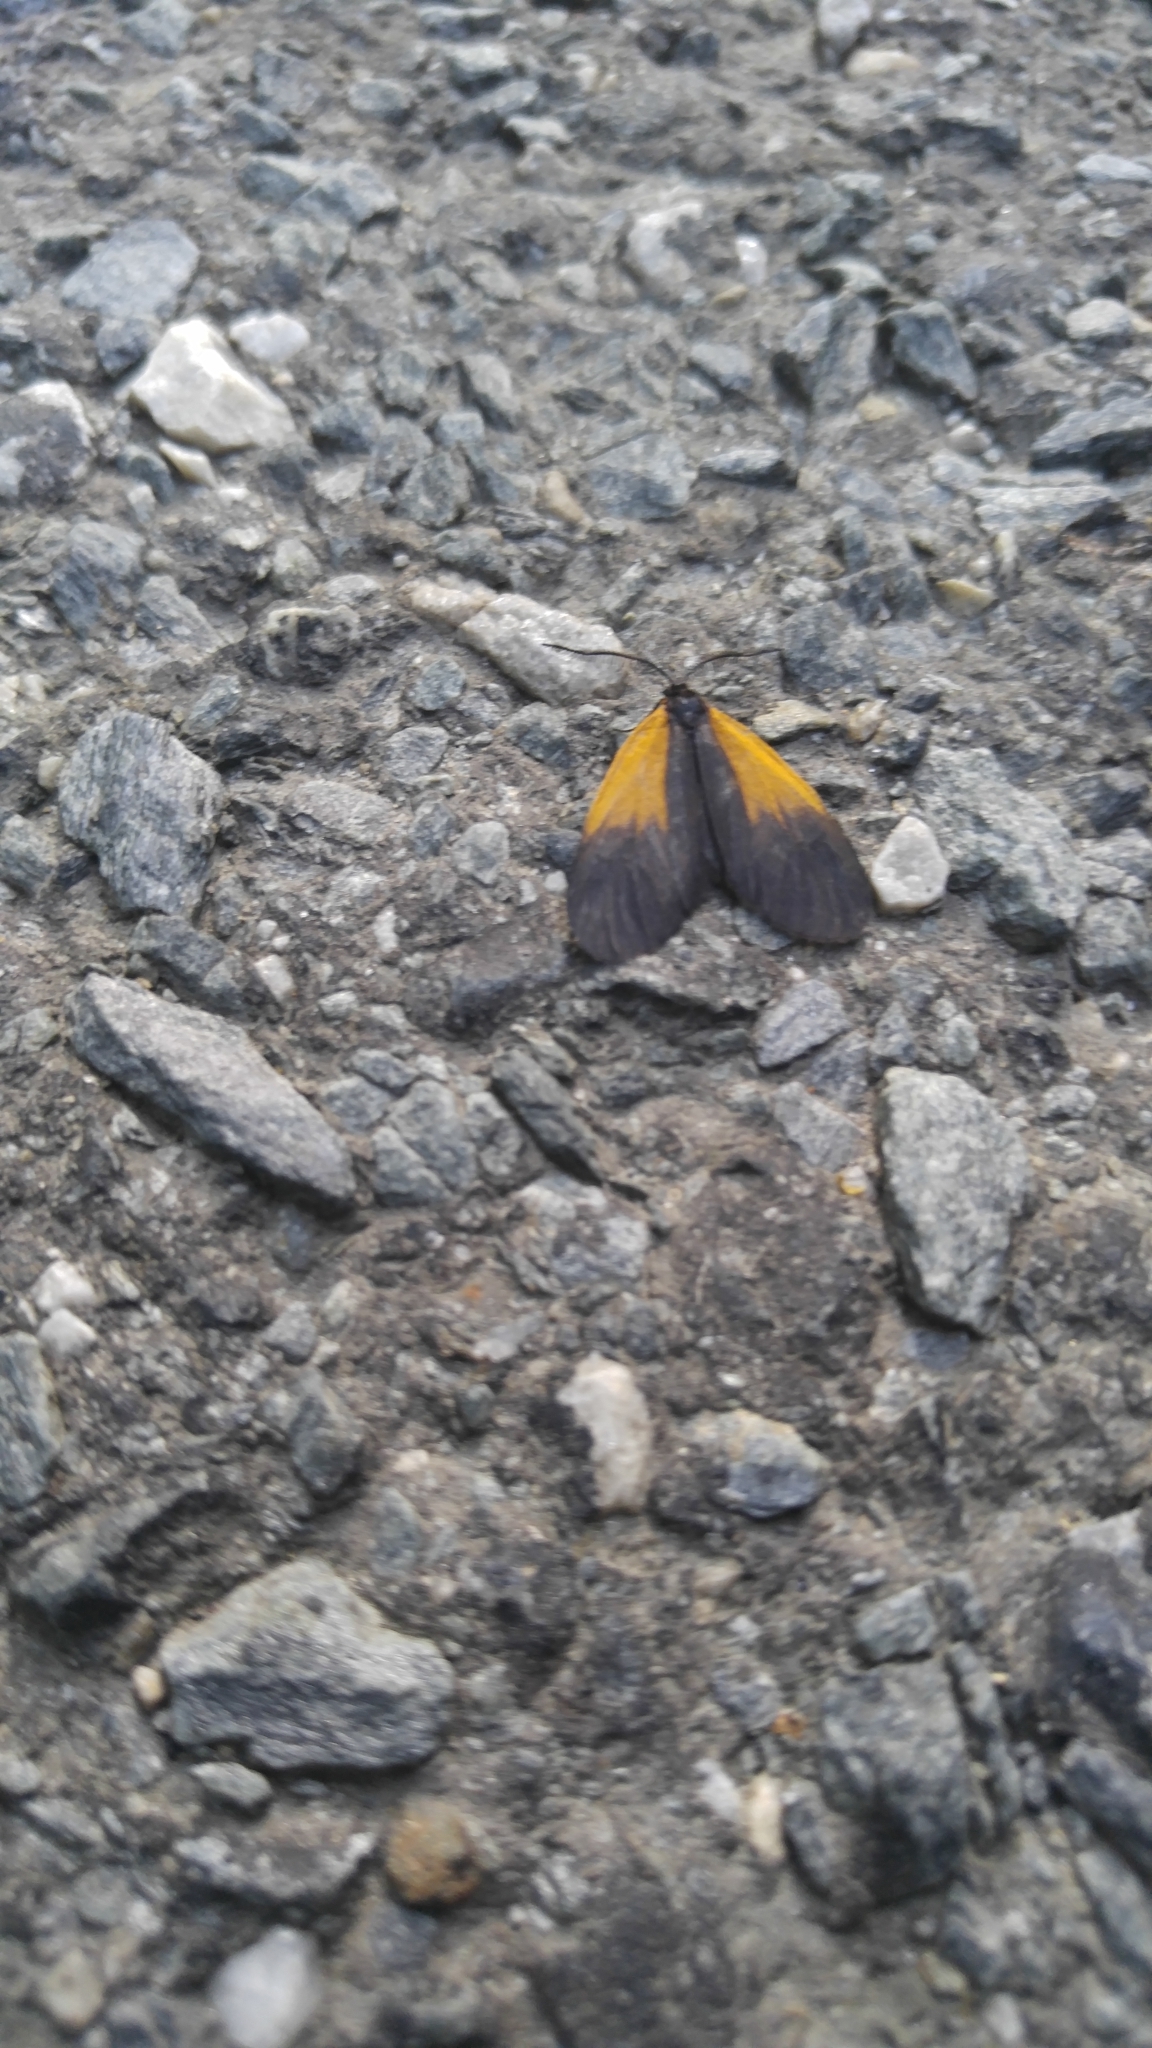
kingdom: Animalia
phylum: Arthropoda
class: Insecta
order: Lepidoptera
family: Zygaenidae
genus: Malthaca
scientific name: Malthaca dimidiata
